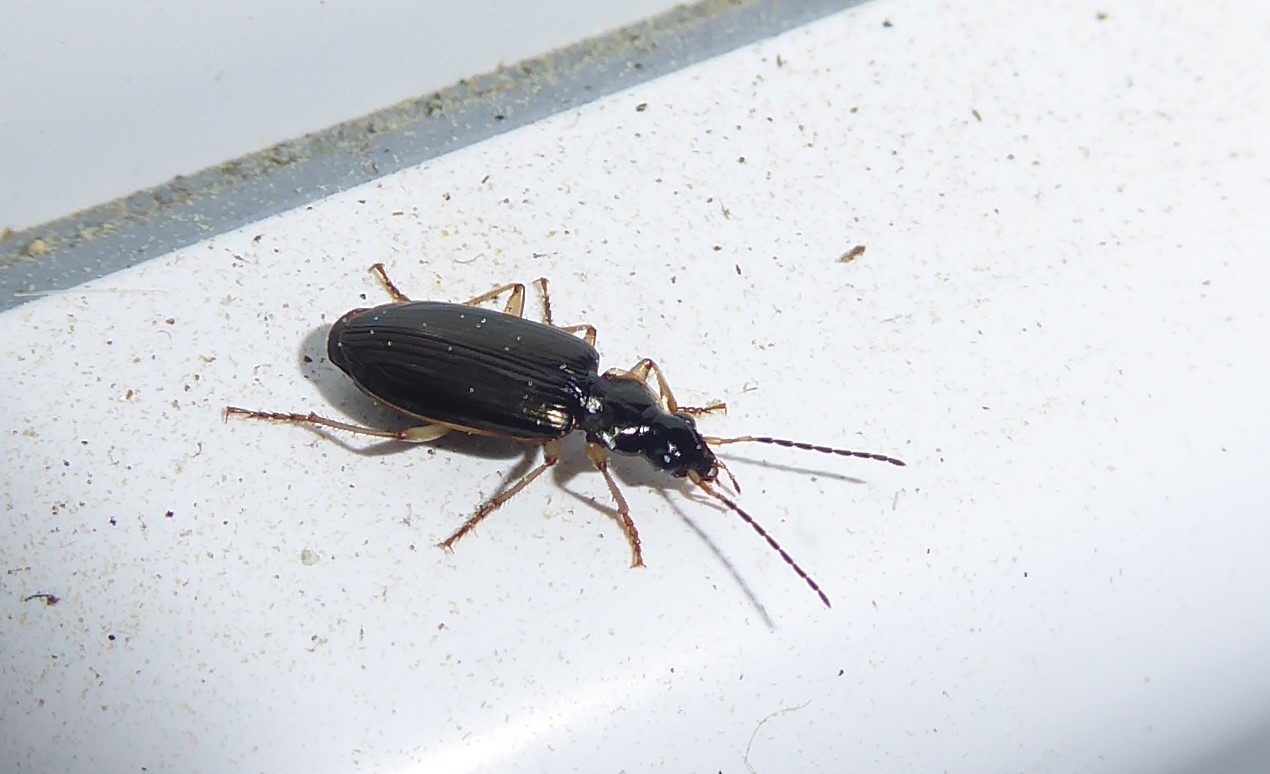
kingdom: Animalia
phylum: Arthropoda
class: Insecta
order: Coleoptera
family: Carabidae
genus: Notagonum
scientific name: Notagonum submetallicum
